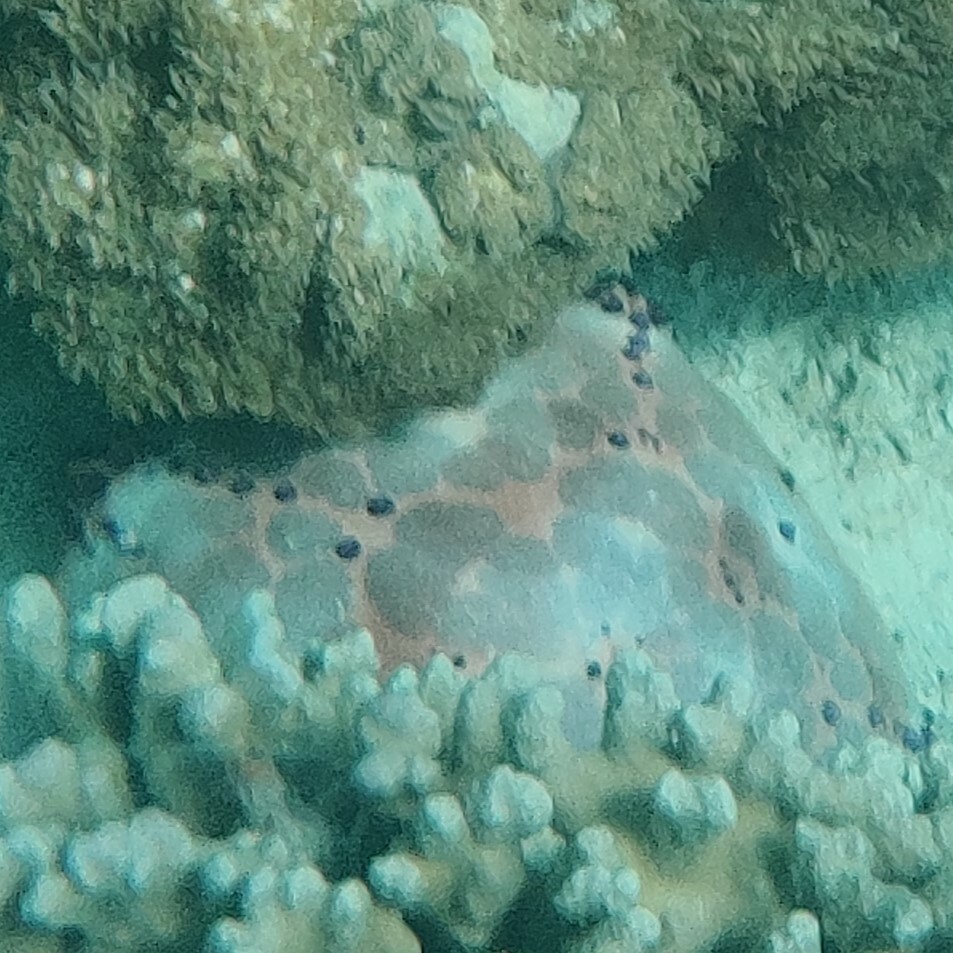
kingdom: Animalia
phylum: Echinodermata
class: Asteroidea
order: Valvatida
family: Oreasteridae
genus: Culcita
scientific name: Culcita schmideliana
